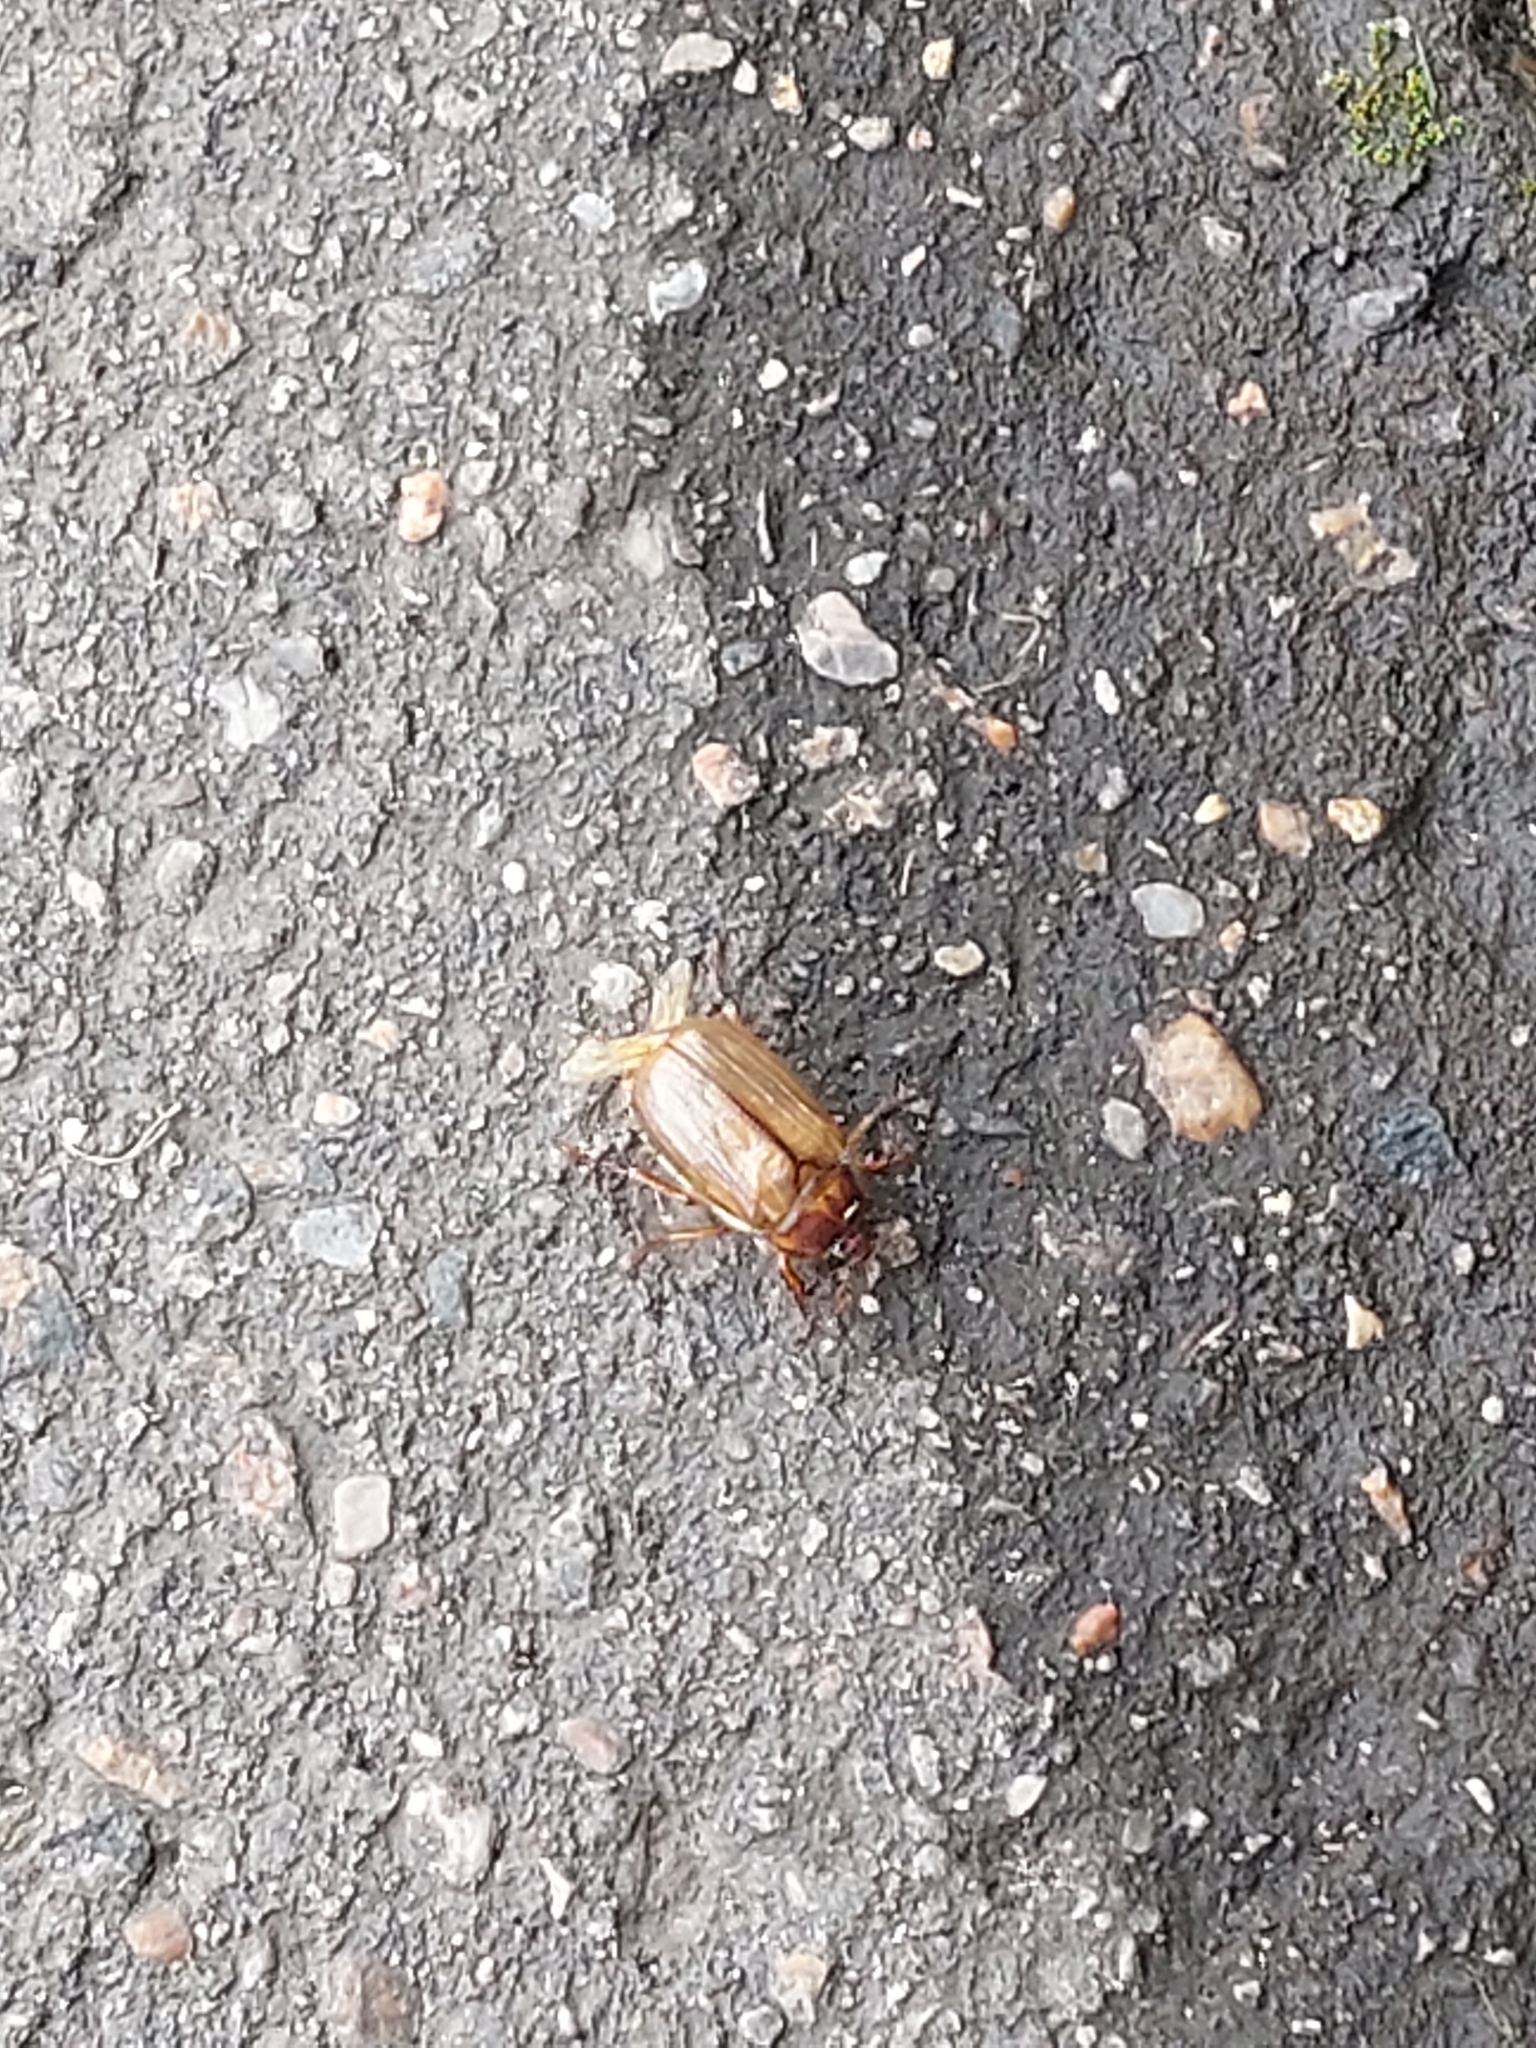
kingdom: Animalia
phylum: Arthropoda
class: Insecta
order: Coleoptera
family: Scarabaeidae
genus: Amphimallon
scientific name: Amphimallon solstitiale
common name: Summer chafer
